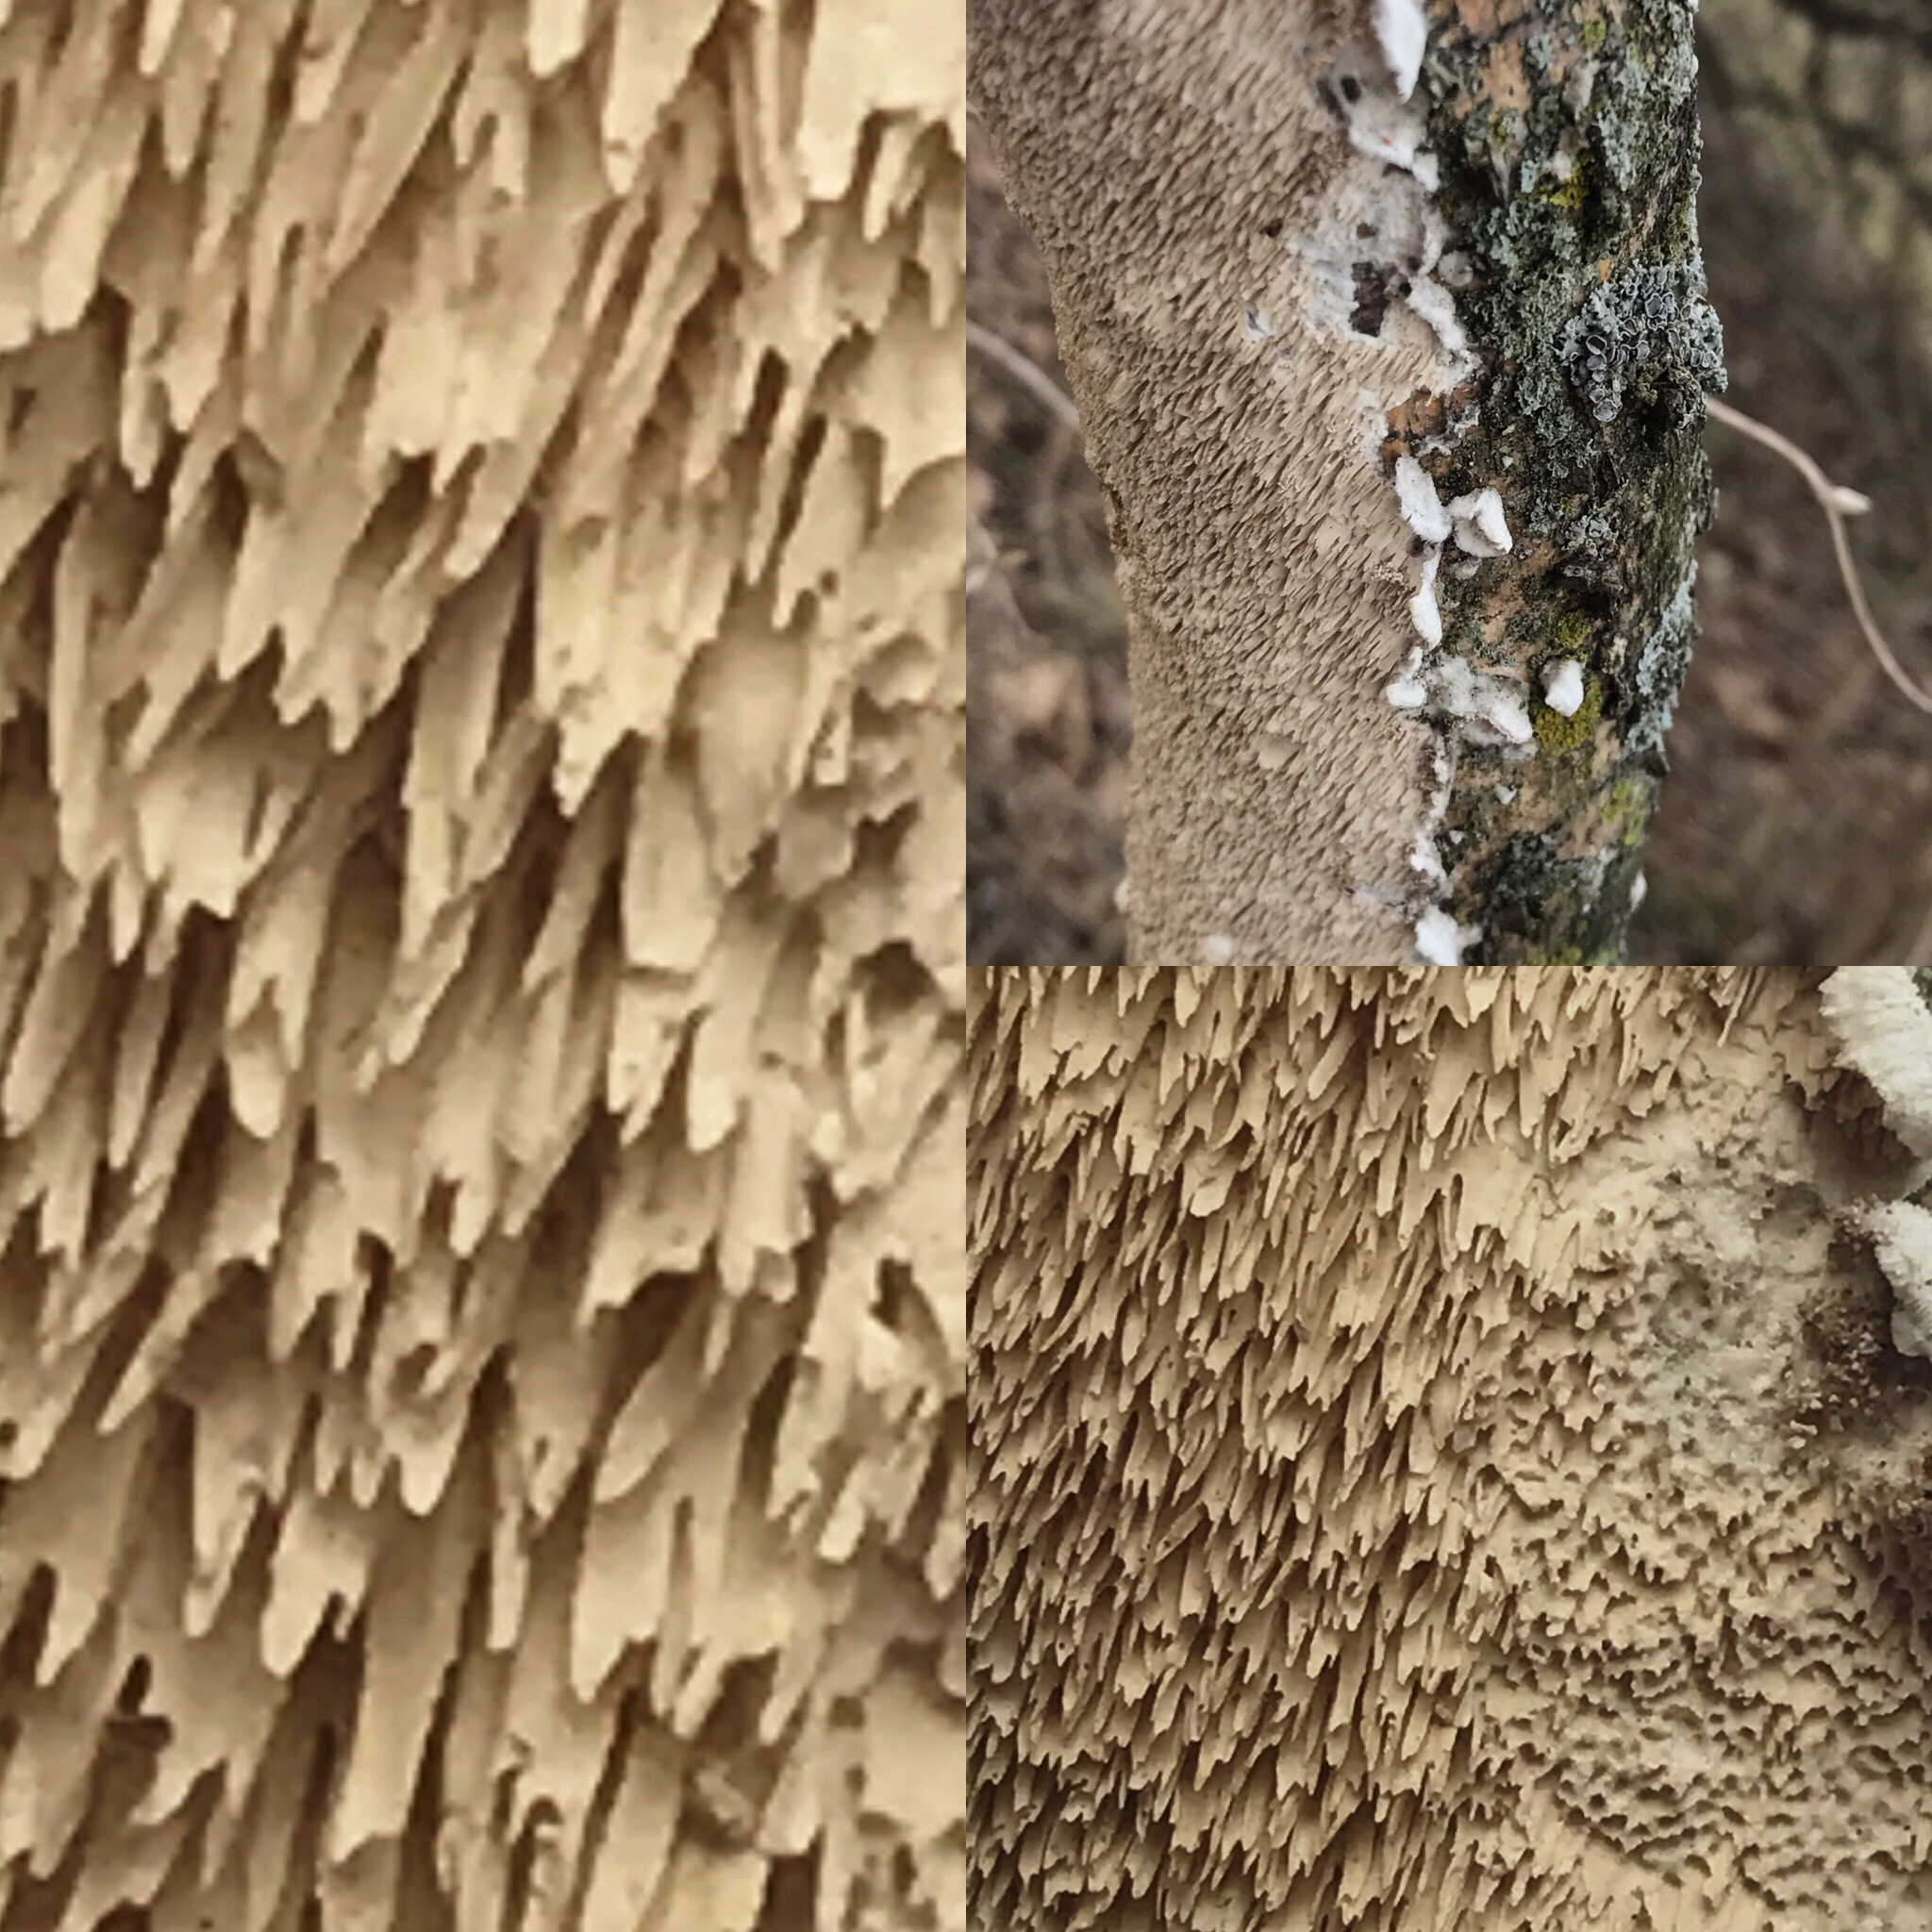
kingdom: Fungi
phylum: Basidiomycota
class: Agaricomycetes
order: Polyporales
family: Irpicaceae
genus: Irpex
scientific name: Irpex lacteus
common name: Milk-white toothed polypore
